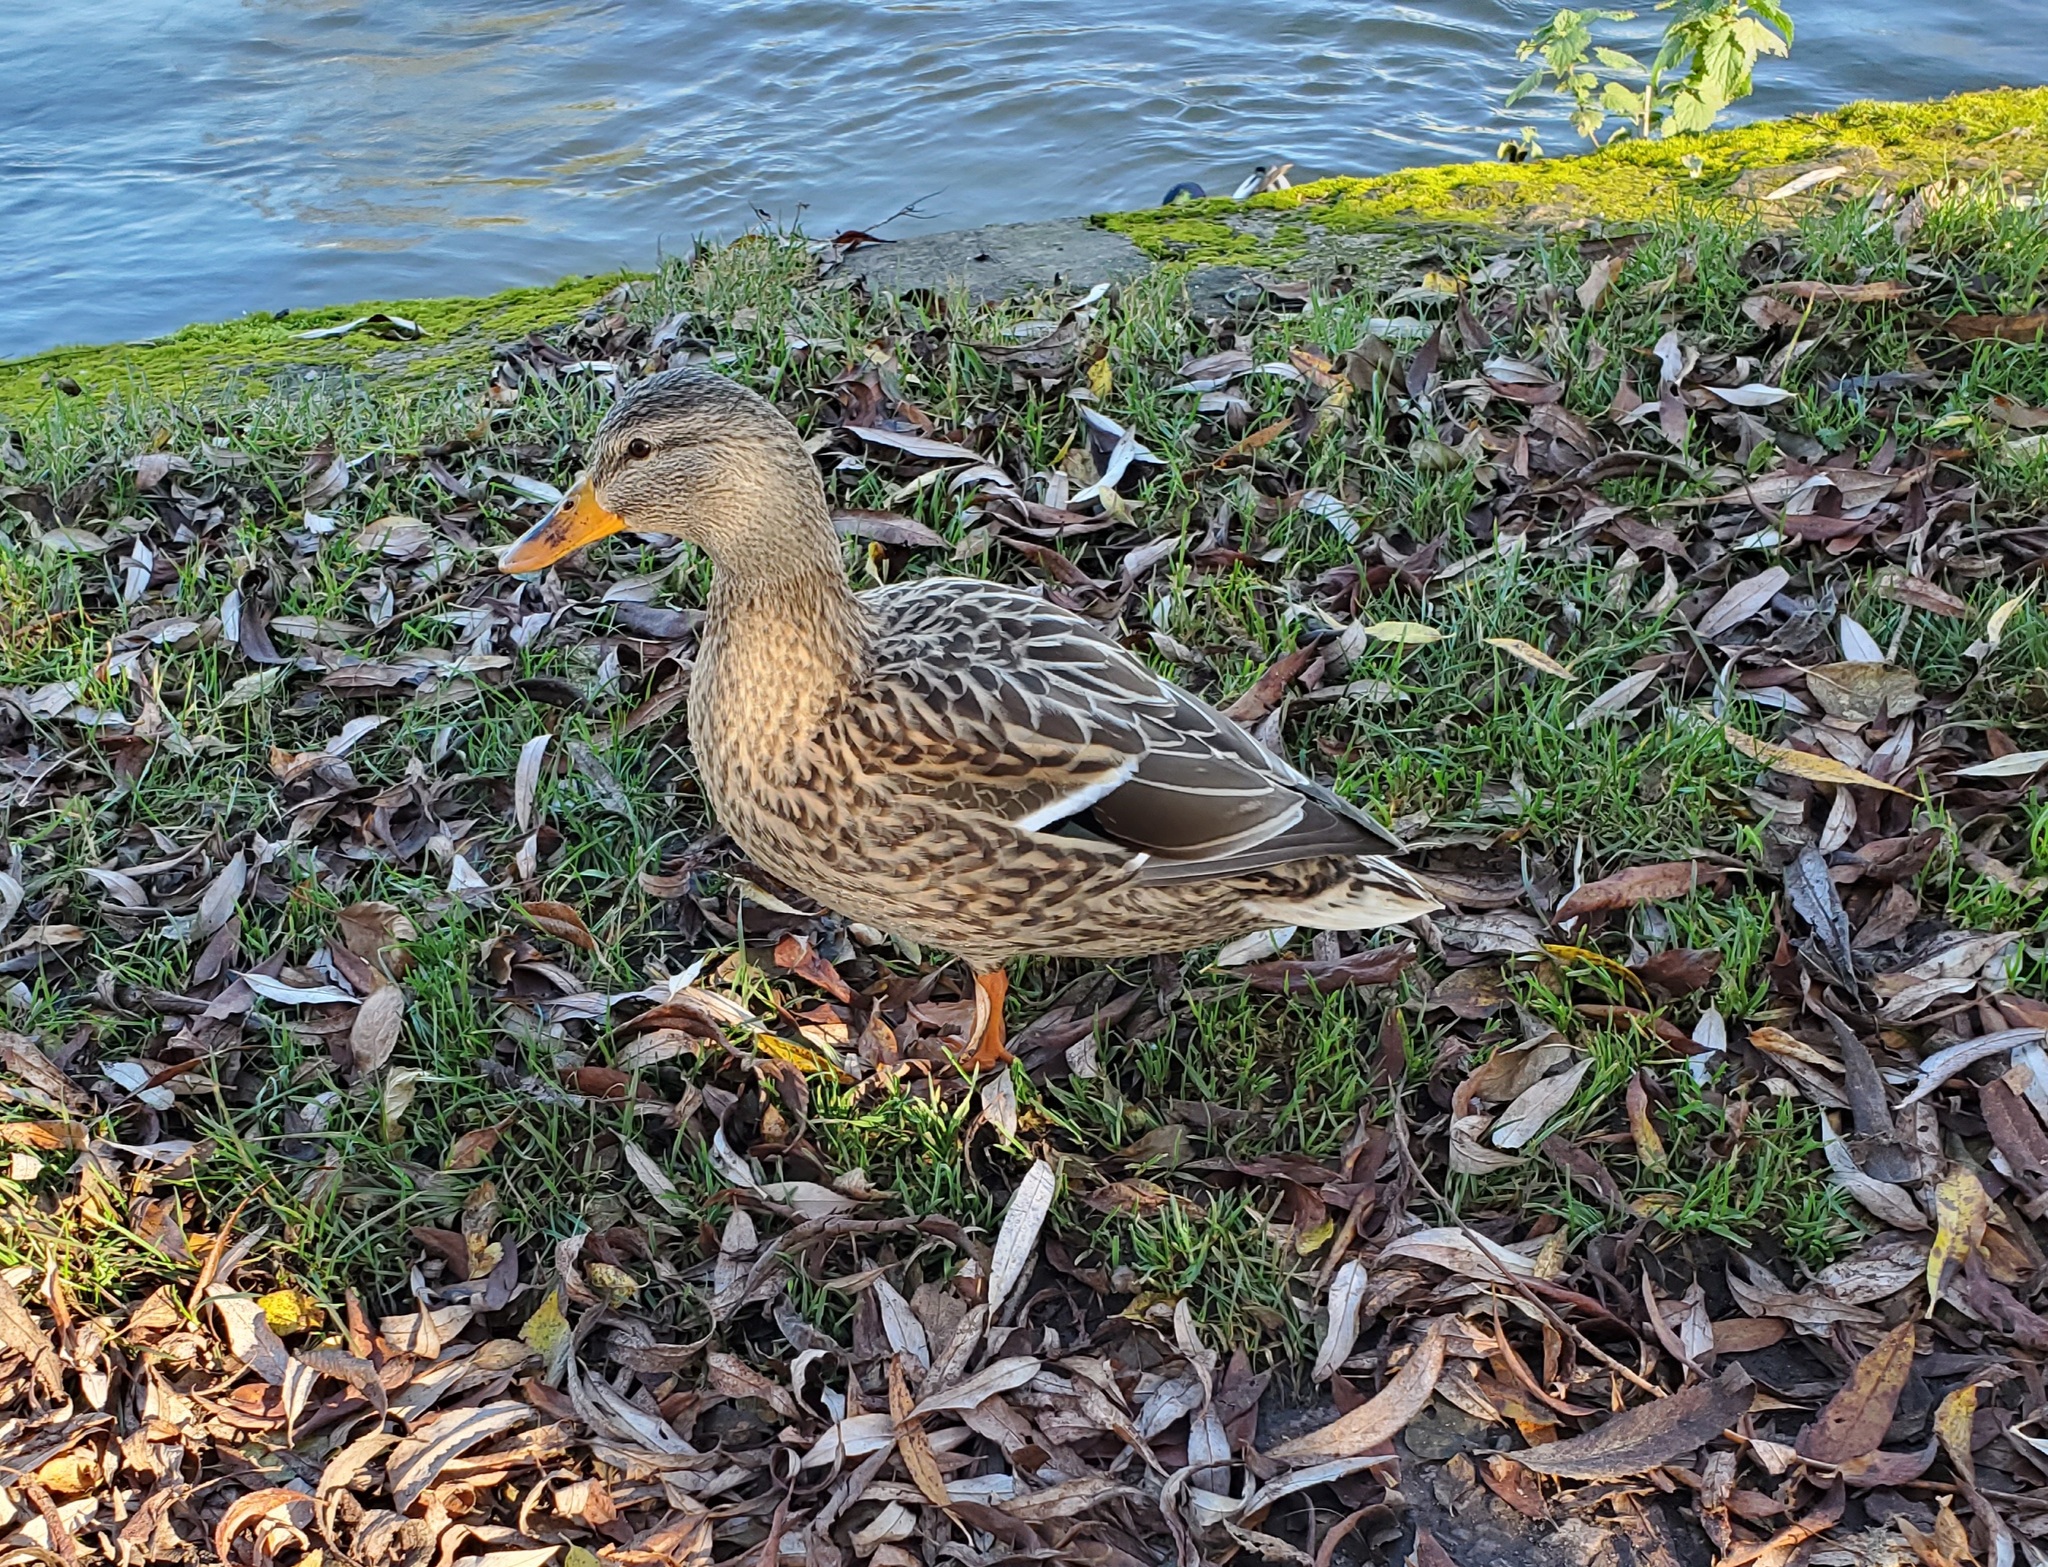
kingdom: Animalia
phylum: Chordata
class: Aves
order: Anseriformes
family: Anatidae
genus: Anas
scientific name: Anas platyrhynchos
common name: Mallard
